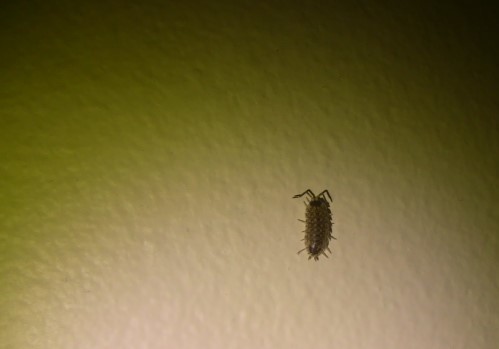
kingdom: Animalia
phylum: Arthropoda
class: Malacostraca
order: Isopoda
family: Porcellionidae
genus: Porcellio
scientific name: Porcellio spinicornis
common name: Painted woodlouse
